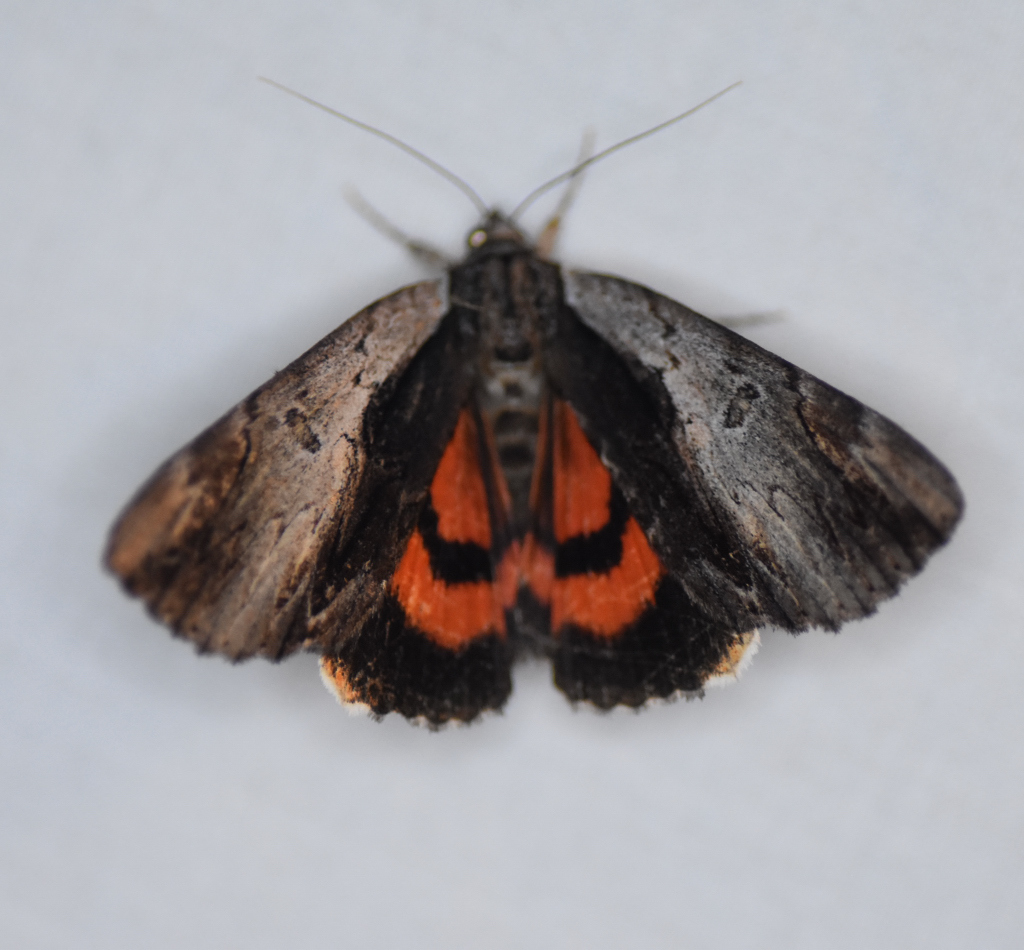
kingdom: Animalia
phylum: Arthropoda
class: Insecta
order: Lepidoptera
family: Erebidae
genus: Catocala
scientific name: Catocala ultronia
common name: Ultronia underwing
